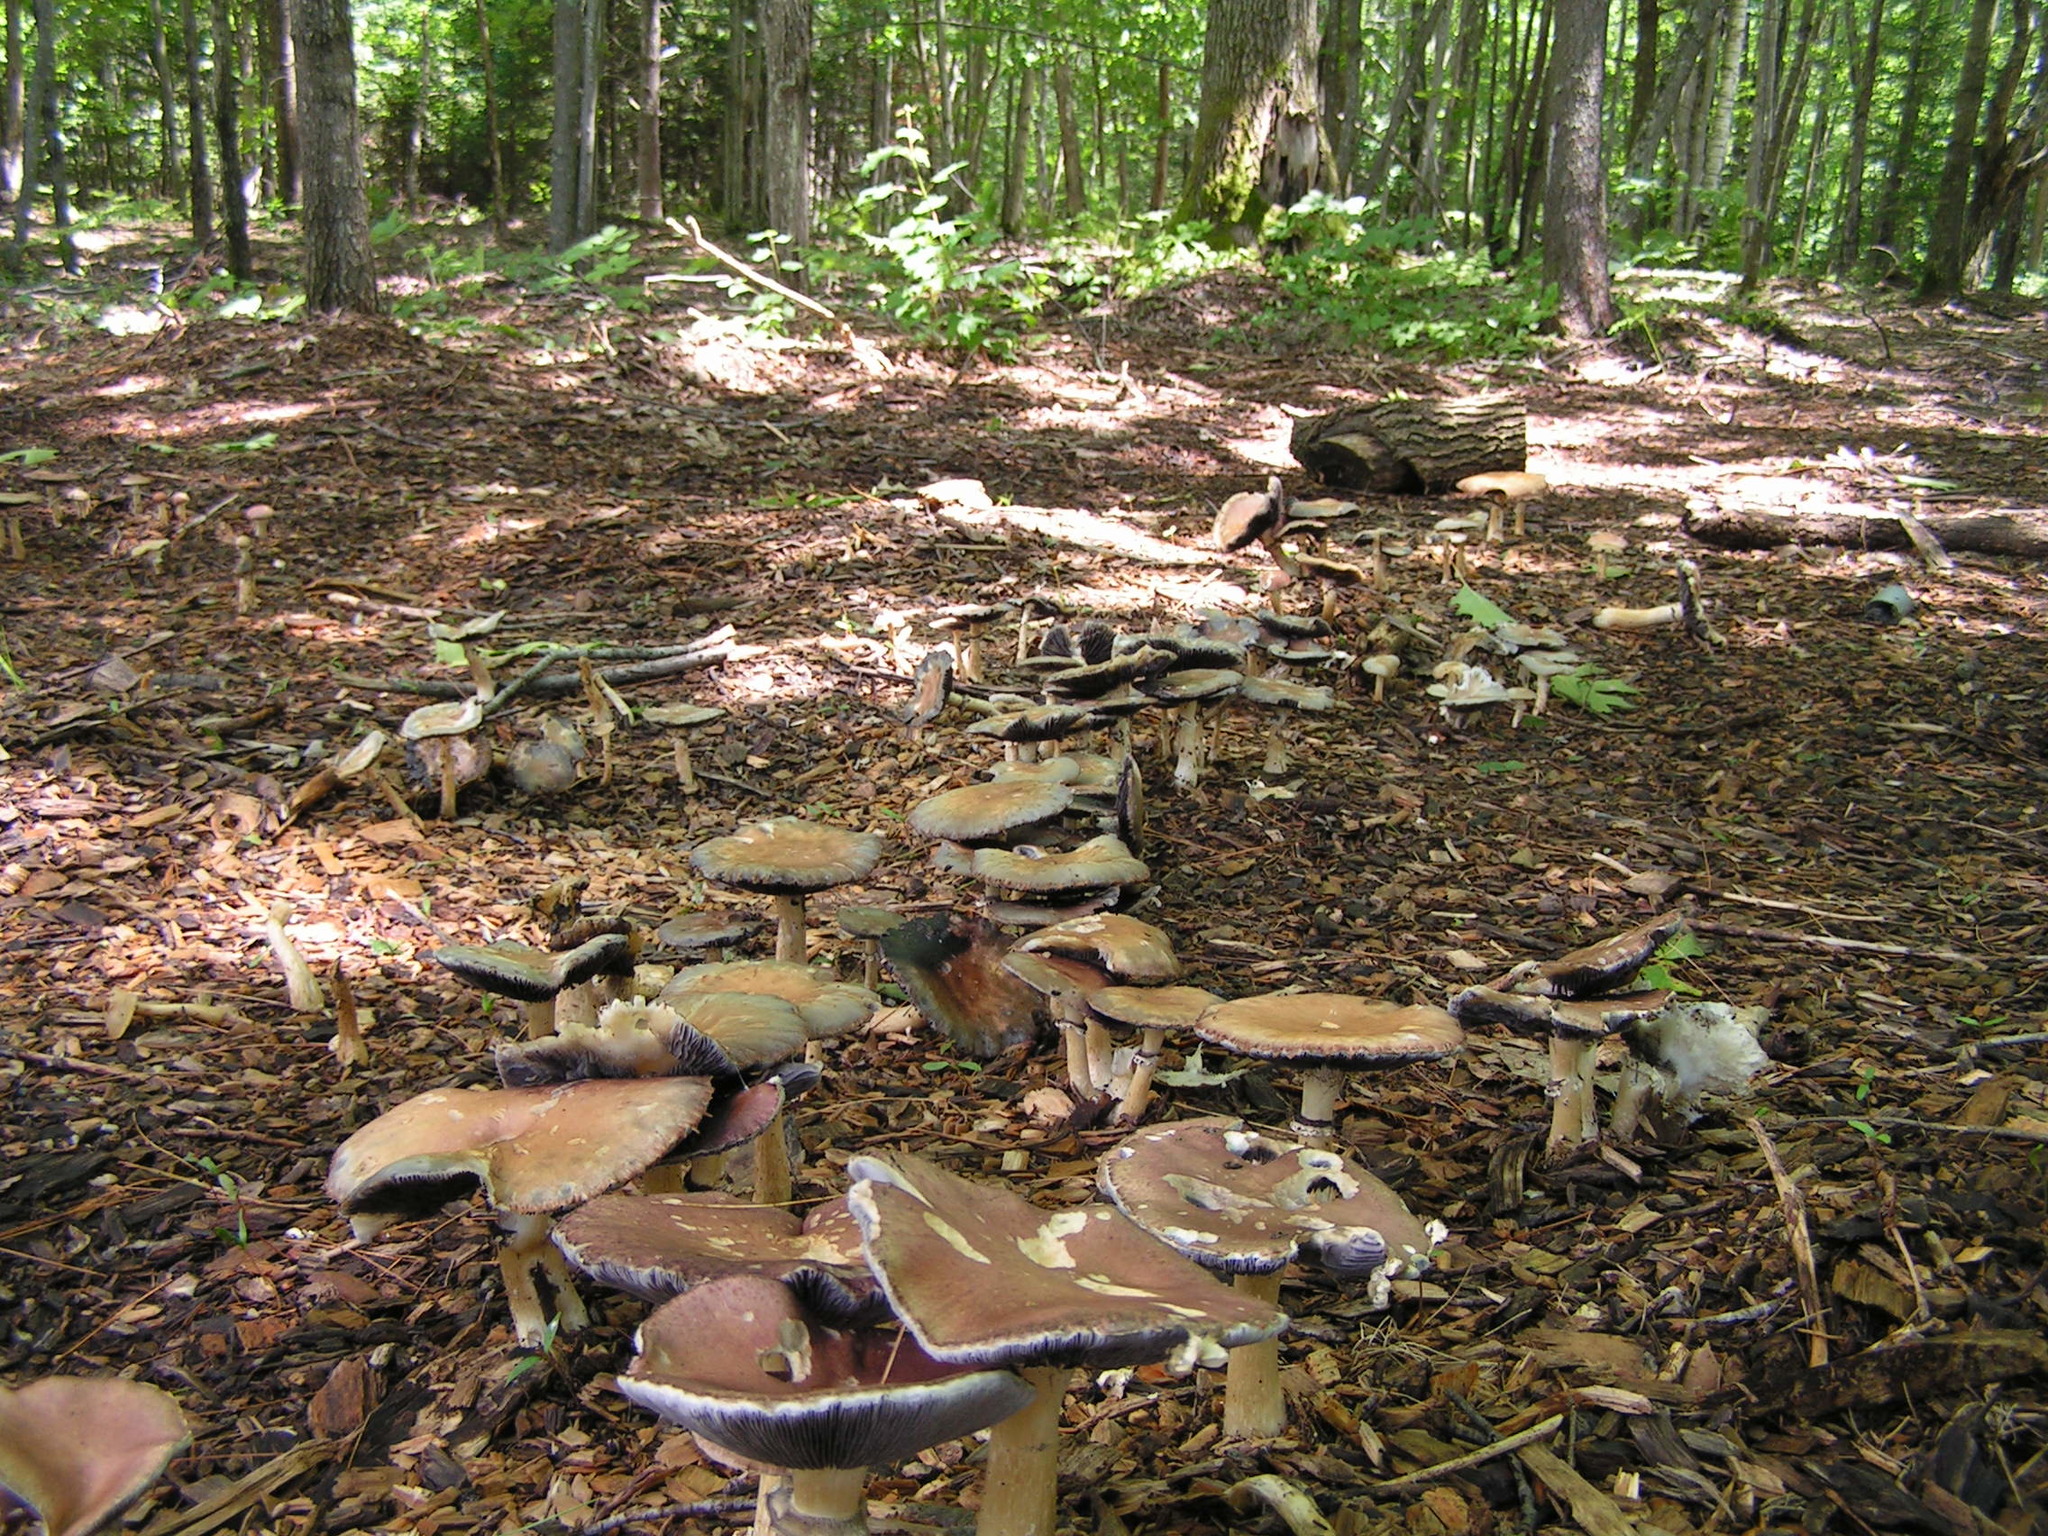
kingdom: Fungi
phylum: Basidiomycota
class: Agaricomycetes
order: Agaricales
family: Strophariaceae
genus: Stropharia
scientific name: Stropharia rugosoannulata
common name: Wine roundhead
